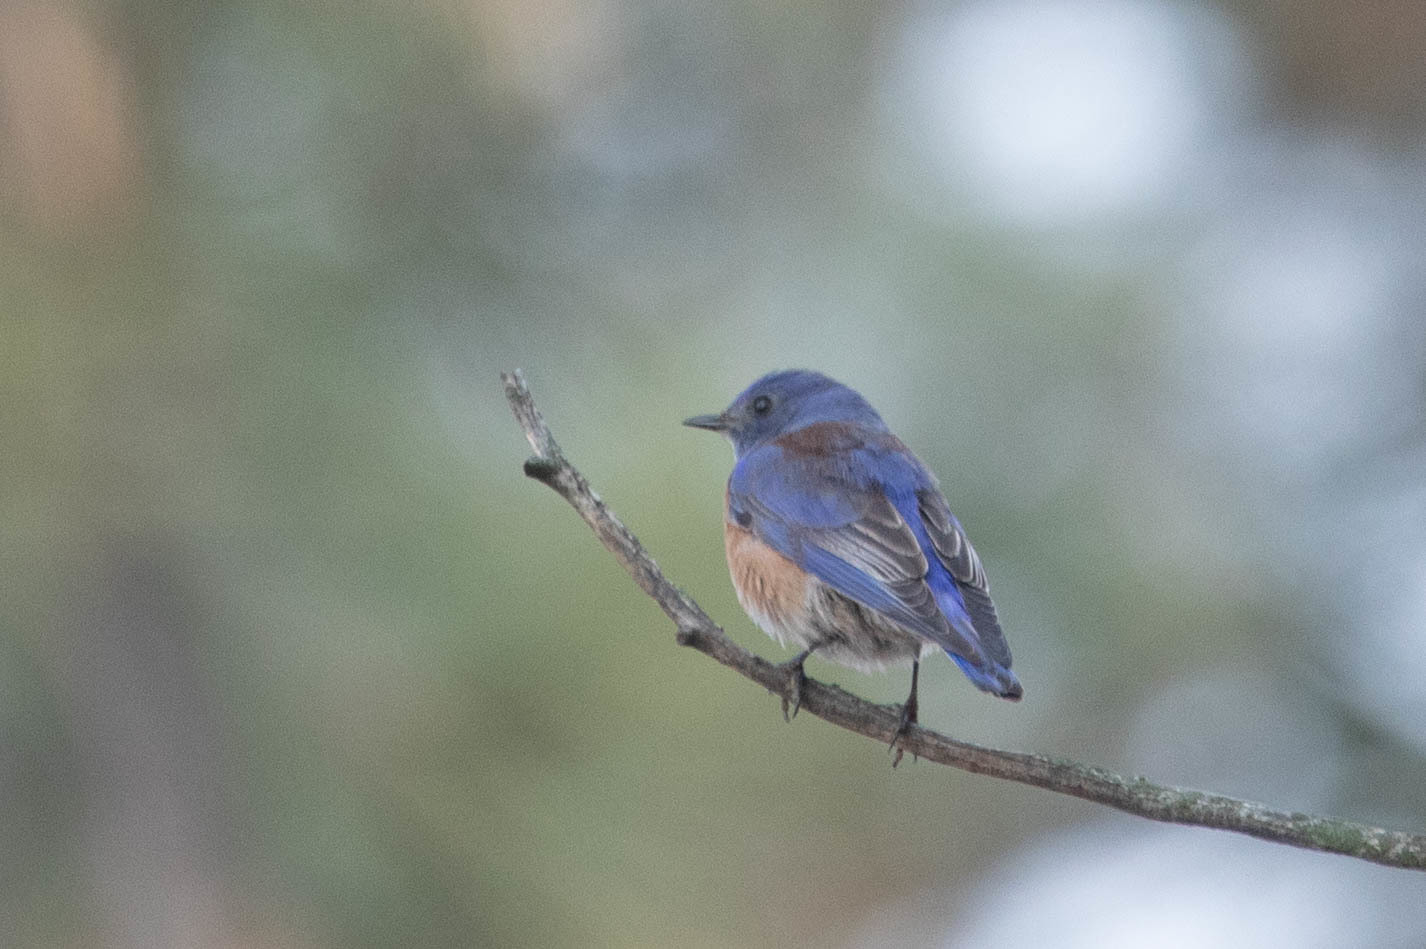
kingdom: Animalia
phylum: Chordata
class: Aves
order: Passeriformes
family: Turdidae
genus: Sialia
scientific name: Sialia mexicana
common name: Western bluebird
